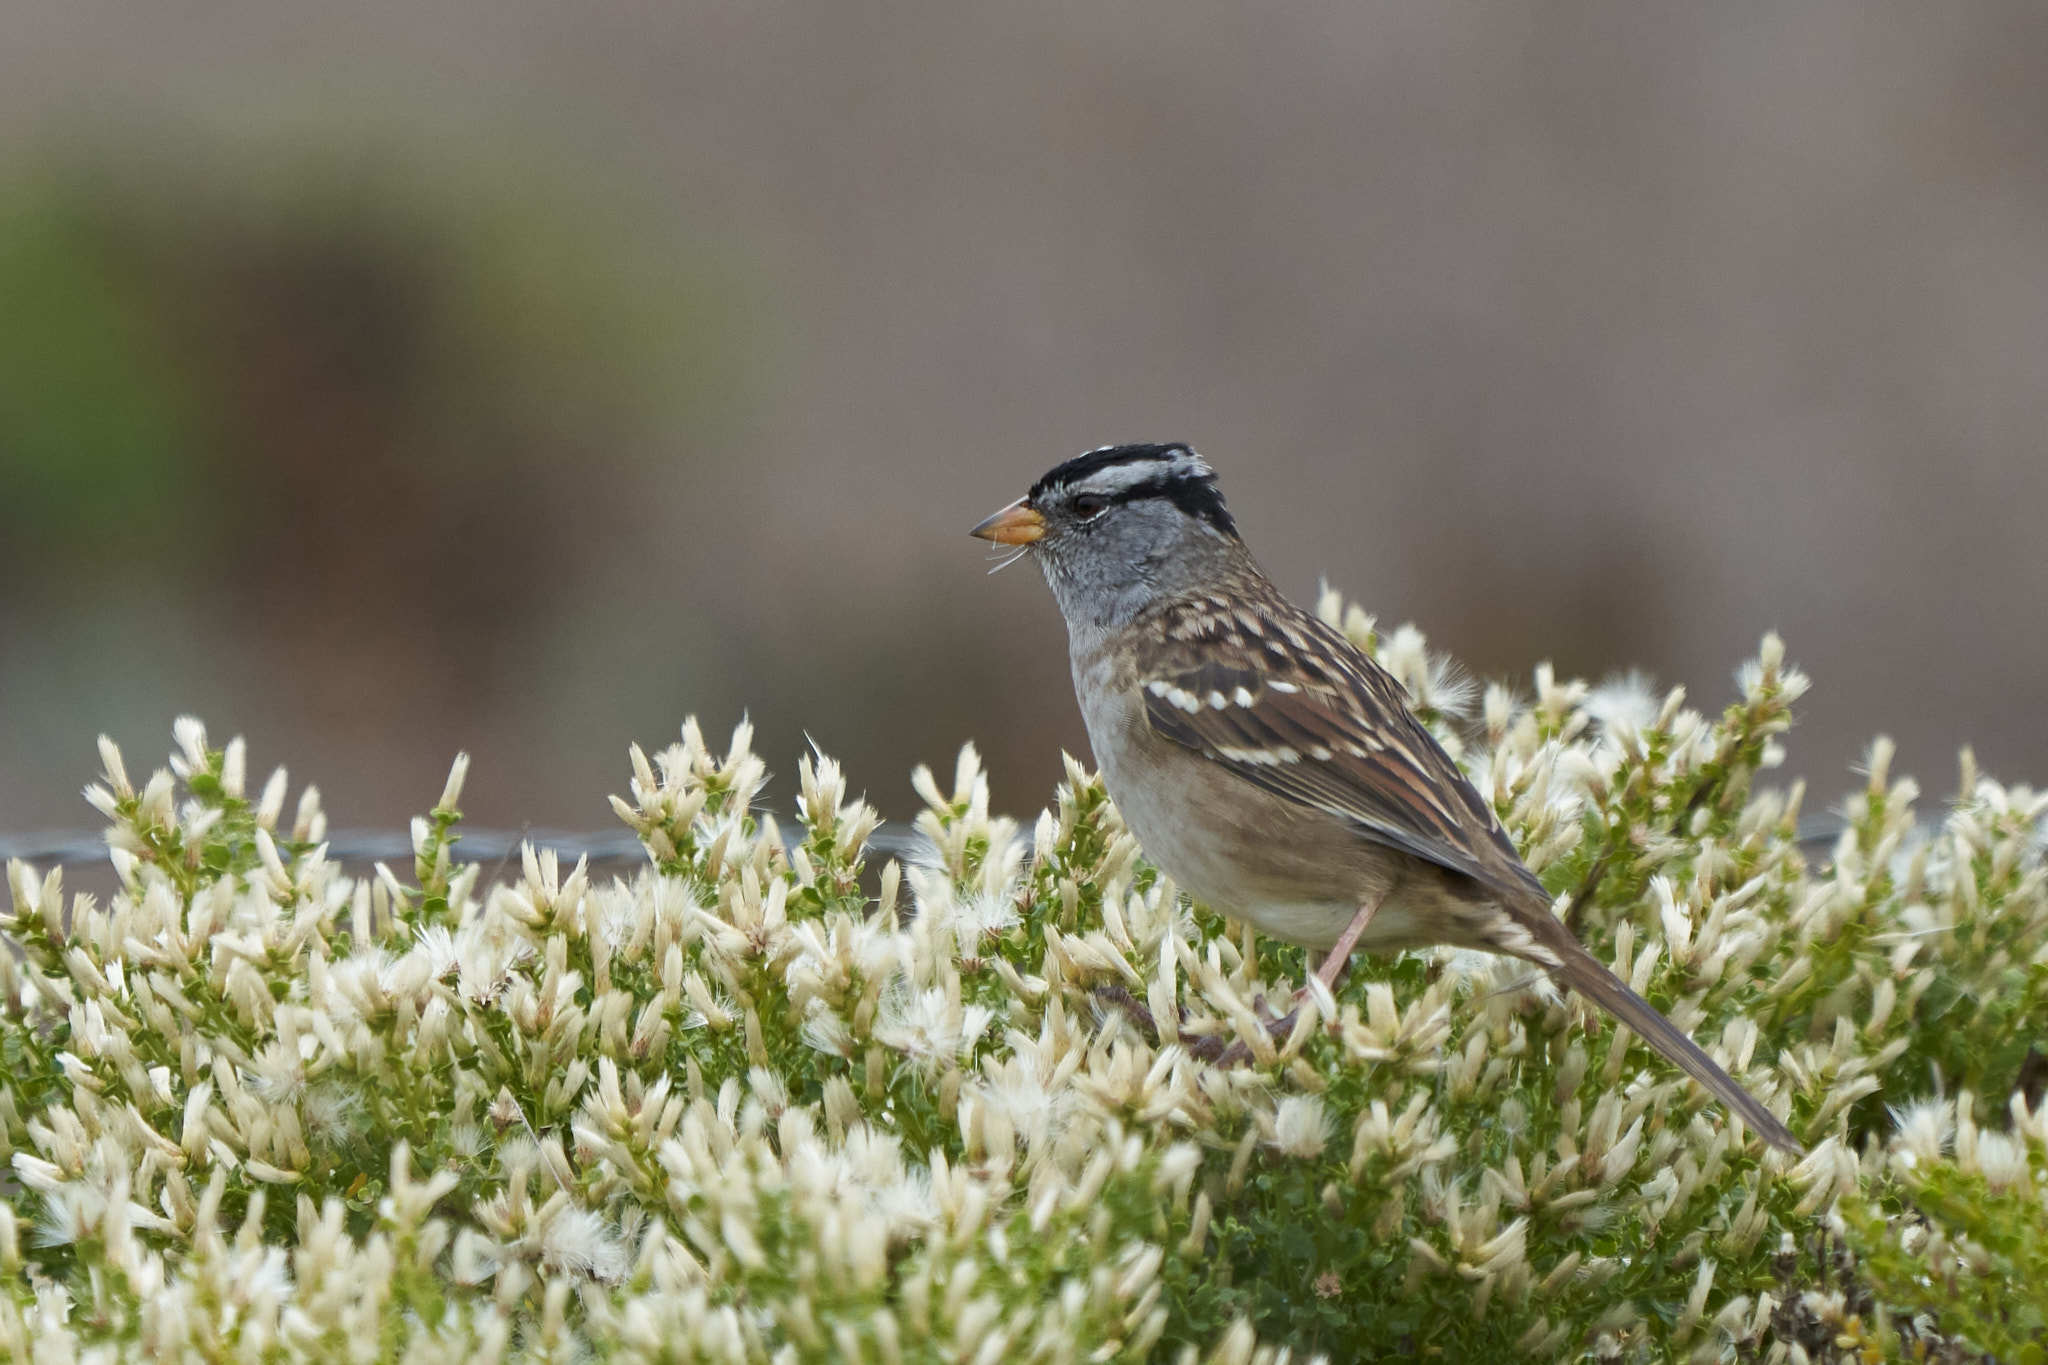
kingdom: Animalia
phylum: Chordata
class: Aves
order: Passeriformes
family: Passerellidae
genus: Zonotrichia
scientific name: Zonotrichia leucophrys
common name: White-crowned sparrow
